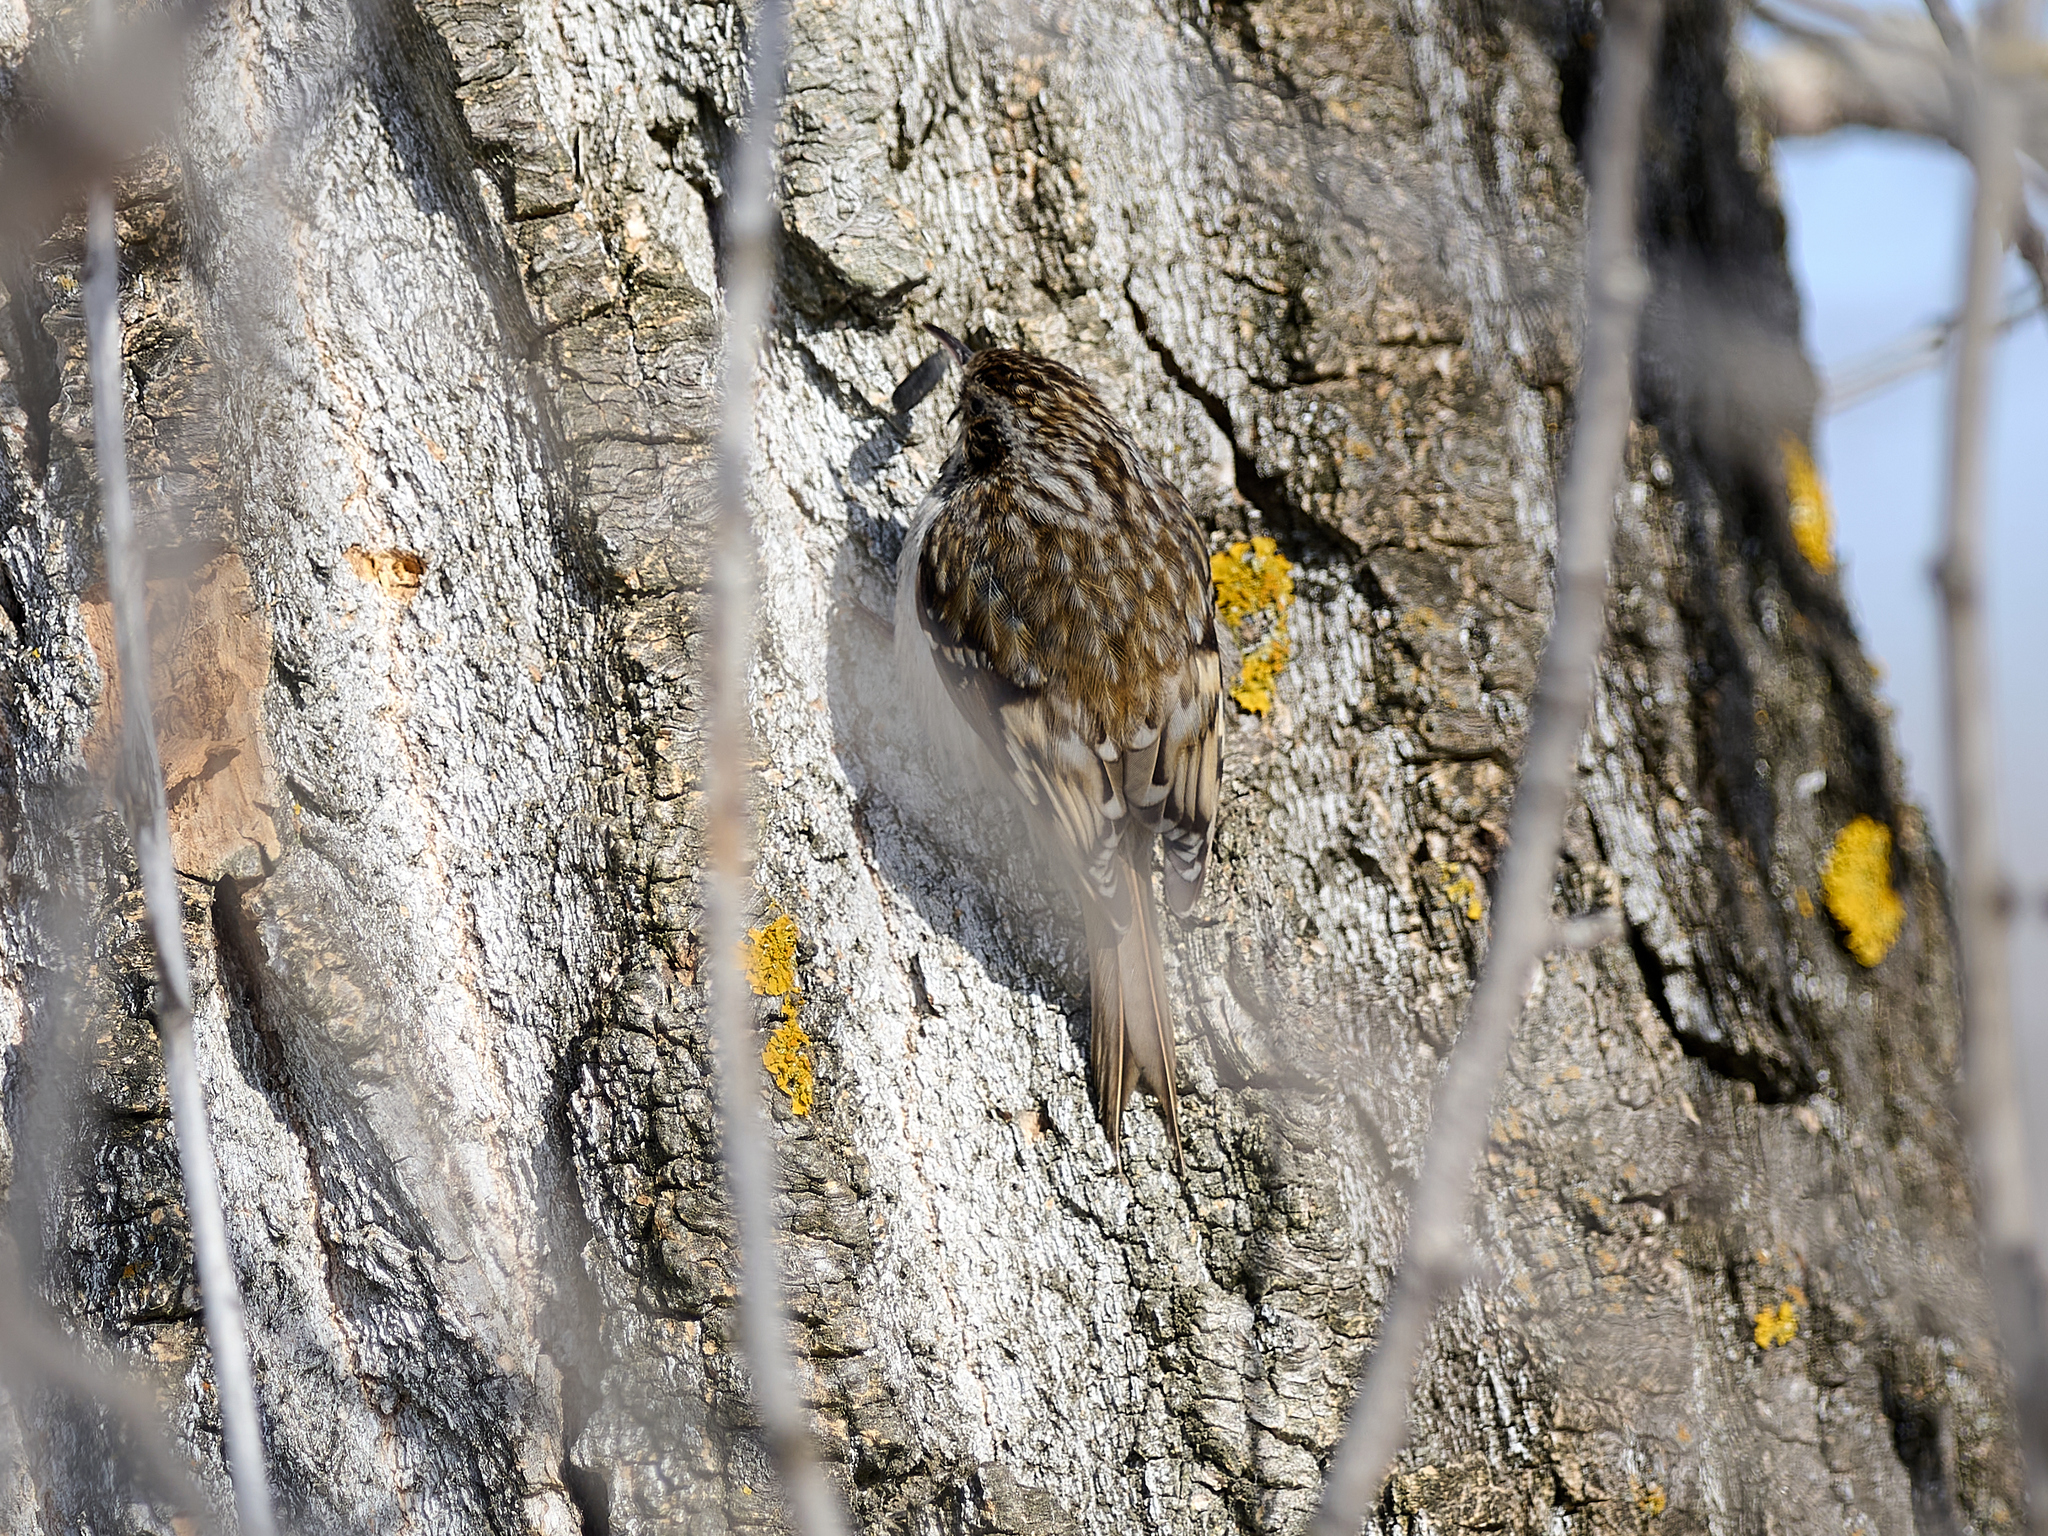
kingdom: Animalia
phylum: Chordata
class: Aves
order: Passeriformes
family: Certhiidae
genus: Certhia
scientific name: Certhia familiaris
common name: Eurasian treecreeper
